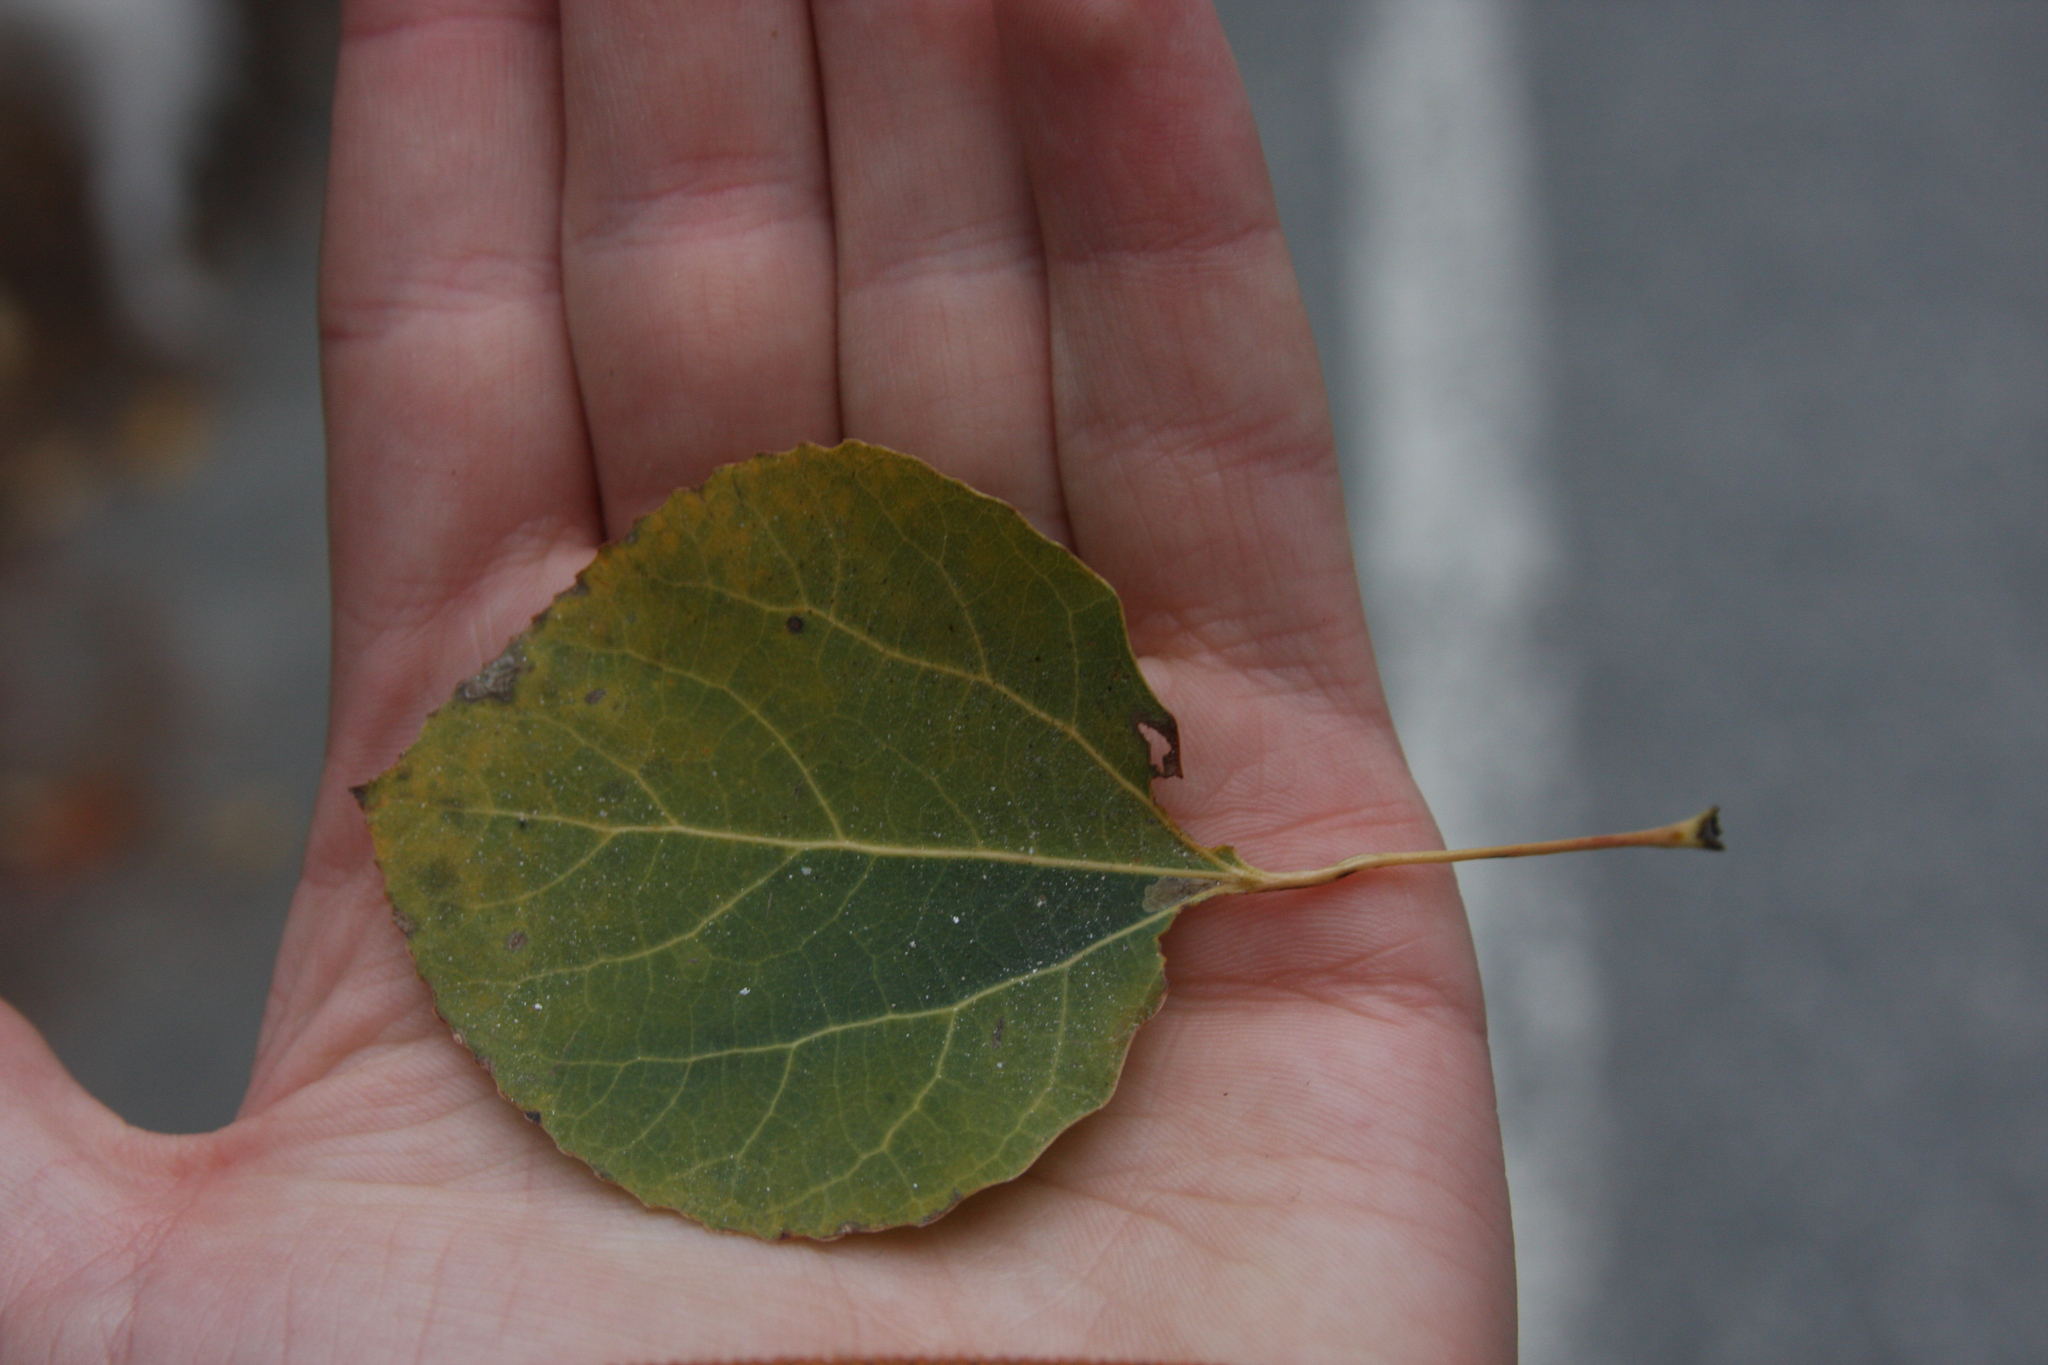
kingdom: Plantae
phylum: Tracheophyta
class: Magnoliopsida
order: Malpighiales
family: Salicaceae
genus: Populus
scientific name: Populus tremuloides
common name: Quaking aspen
